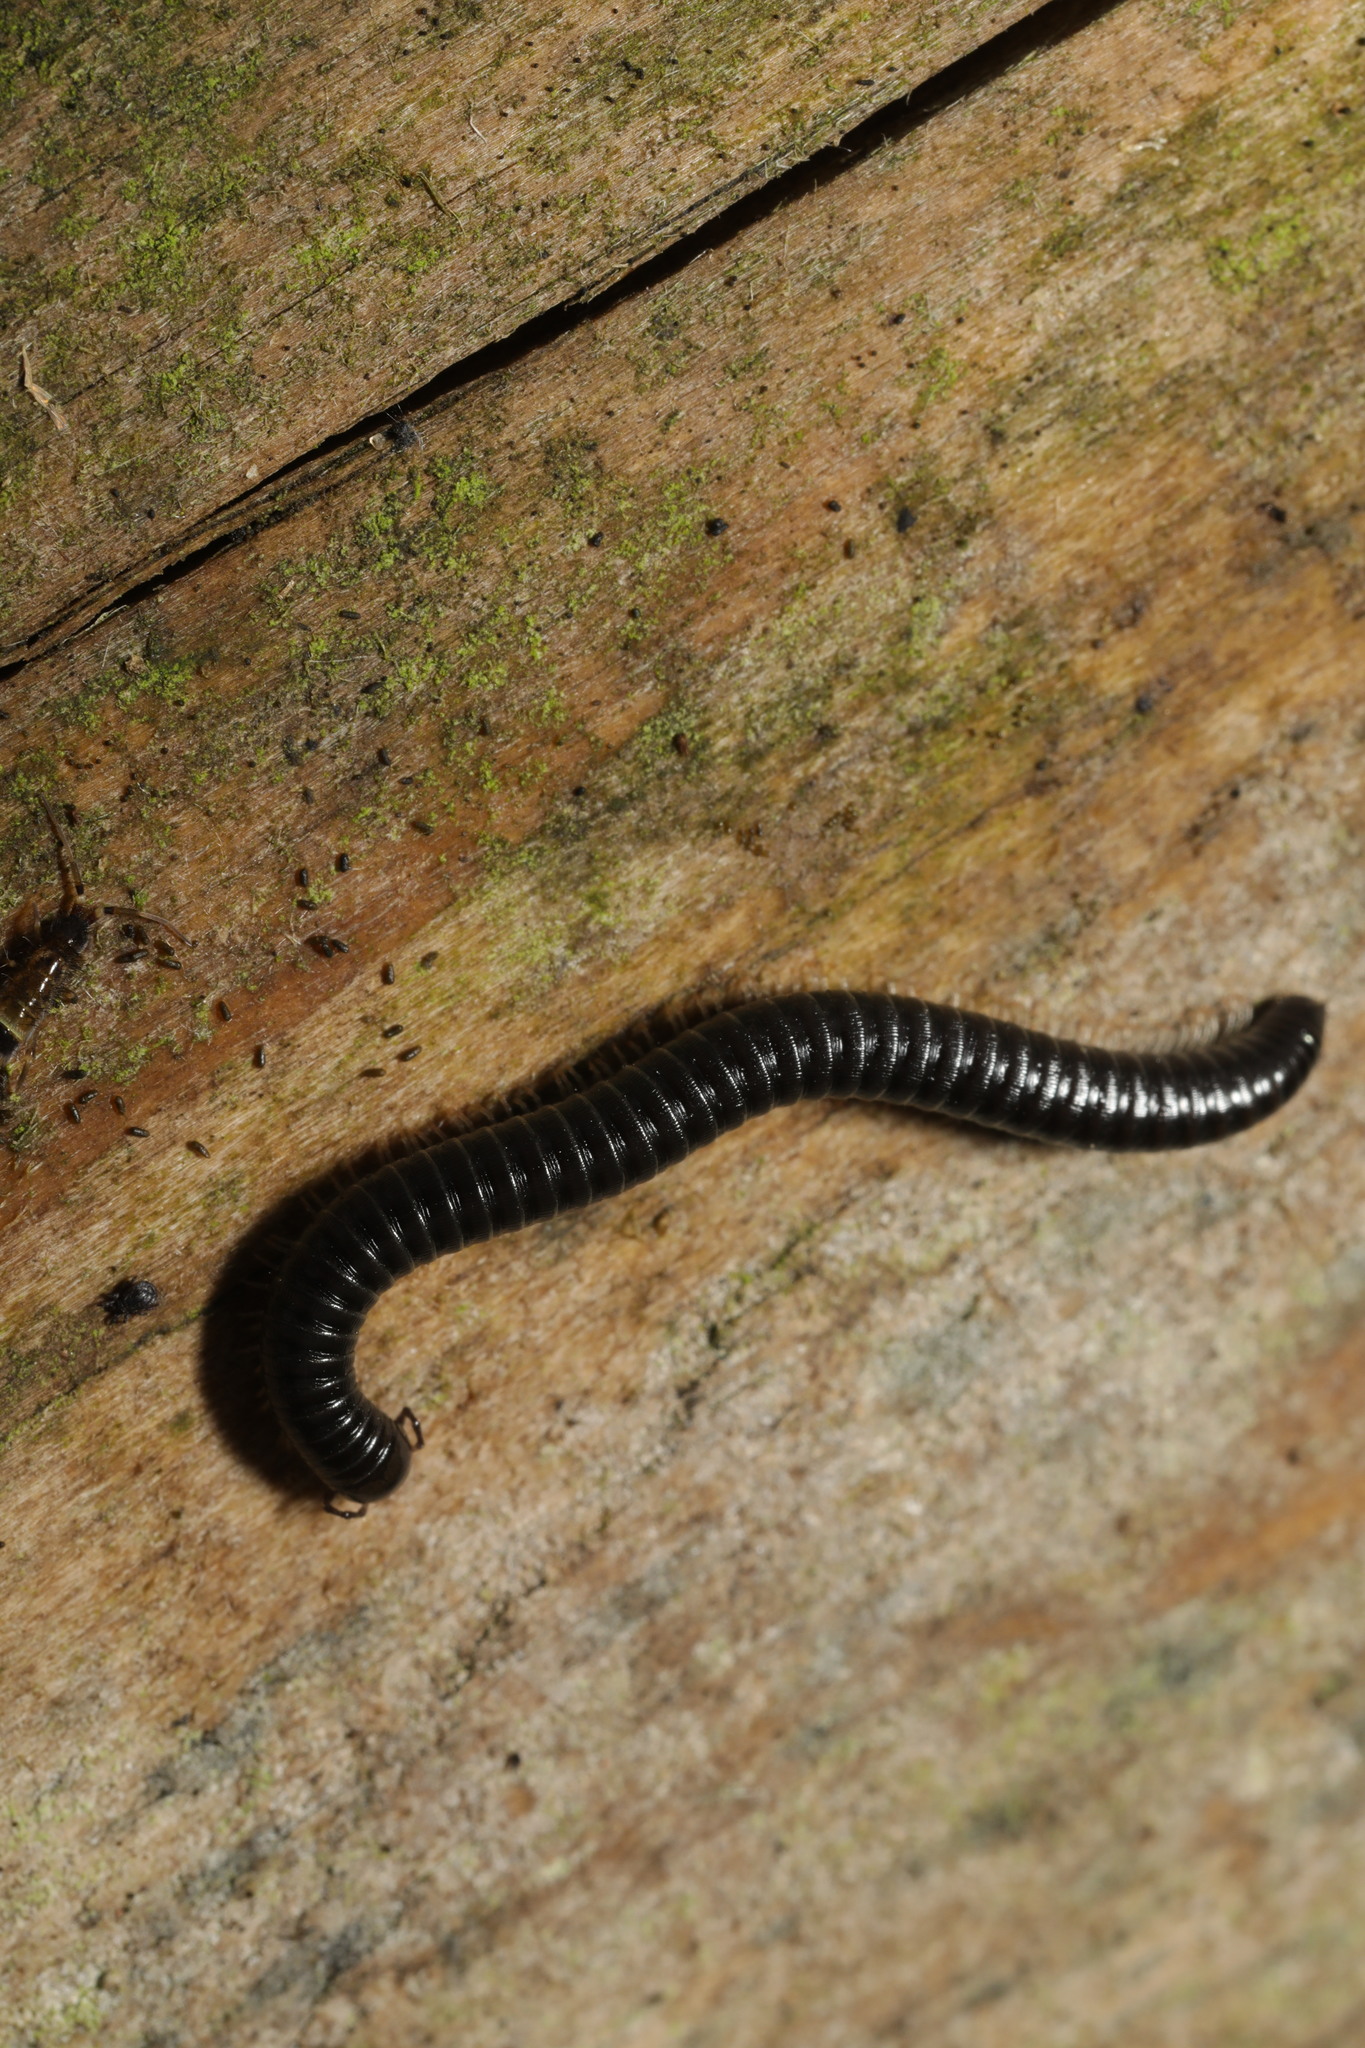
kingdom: Animalia
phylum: Arthropoda
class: Diplopoda
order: Julida
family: Julidae
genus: Tachypodoiulus
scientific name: Tachypodoiulus niger
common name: White-legged snake millipede
